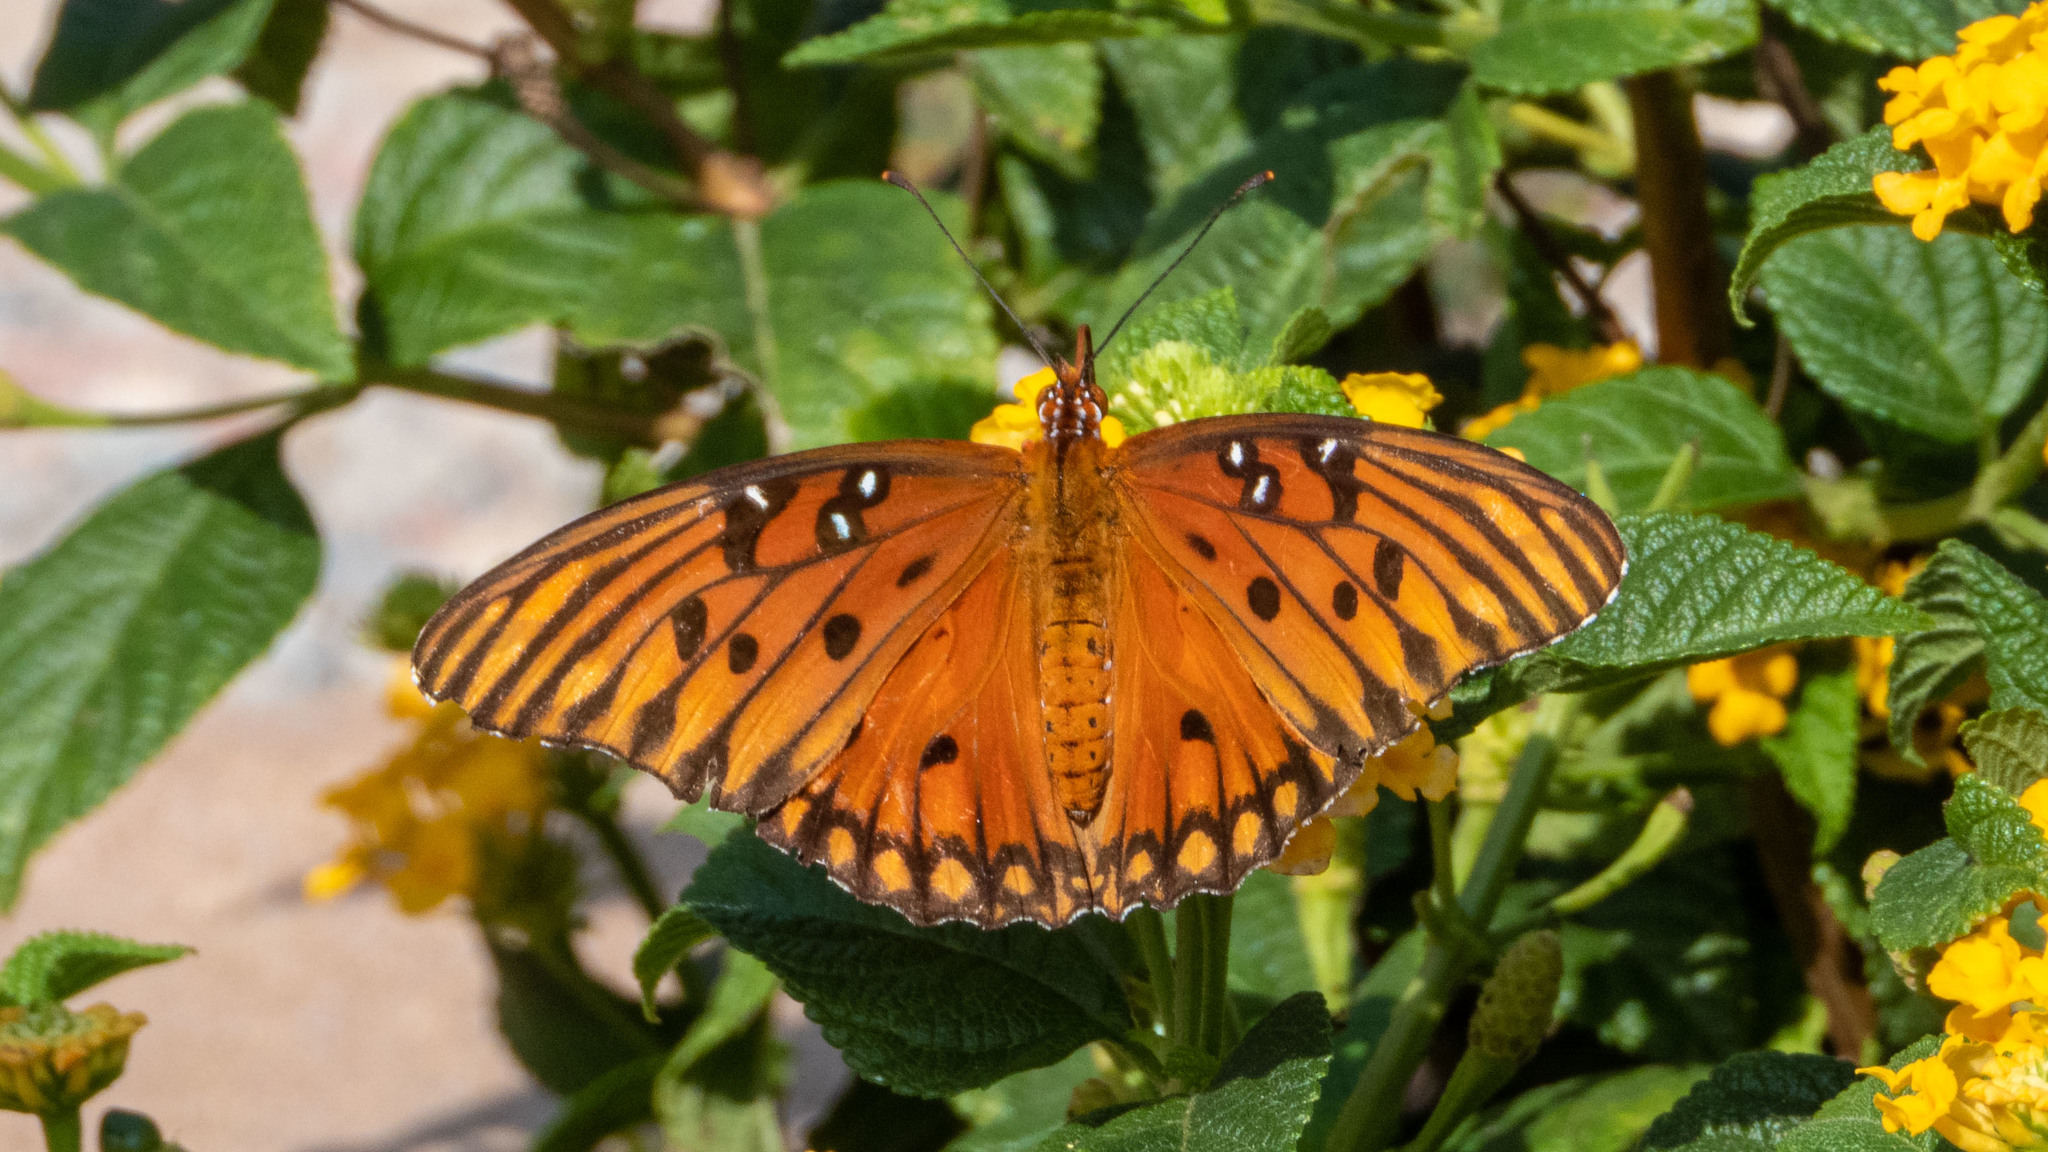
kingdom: Animalia
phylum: Arthropoda
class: Insecta
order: Lepidoptera
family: Nymphalidae
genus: Dione
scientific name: Dione vanillae
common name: Gulf fritillary
